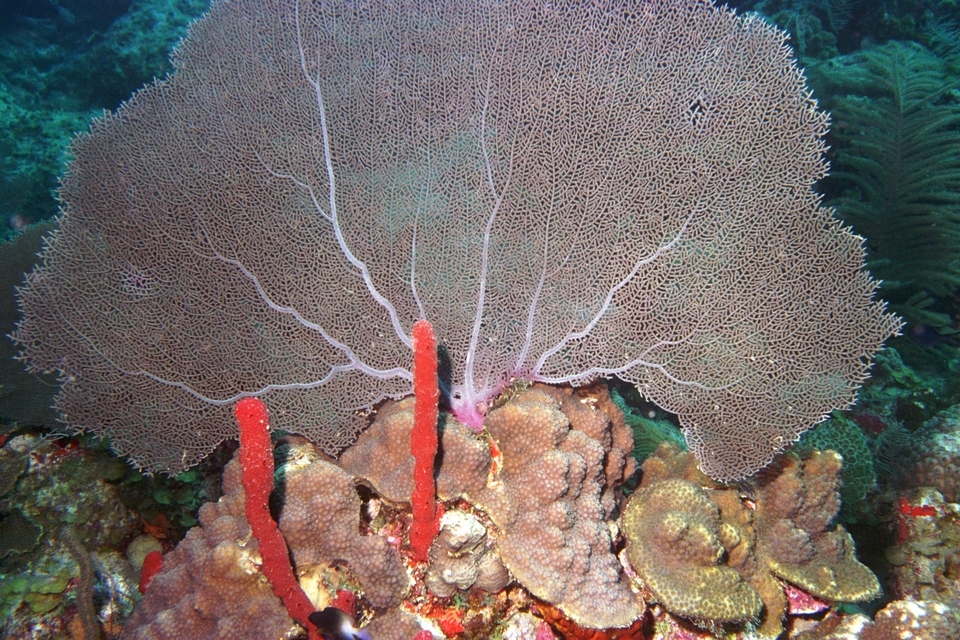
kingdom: Animalia
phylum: Cnidaria
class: Anthozoa
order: Malacalcyonacea
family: Gorgoniidae
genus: Gorgonia
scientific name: Gorgonia ventalina
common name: Common sea fan
